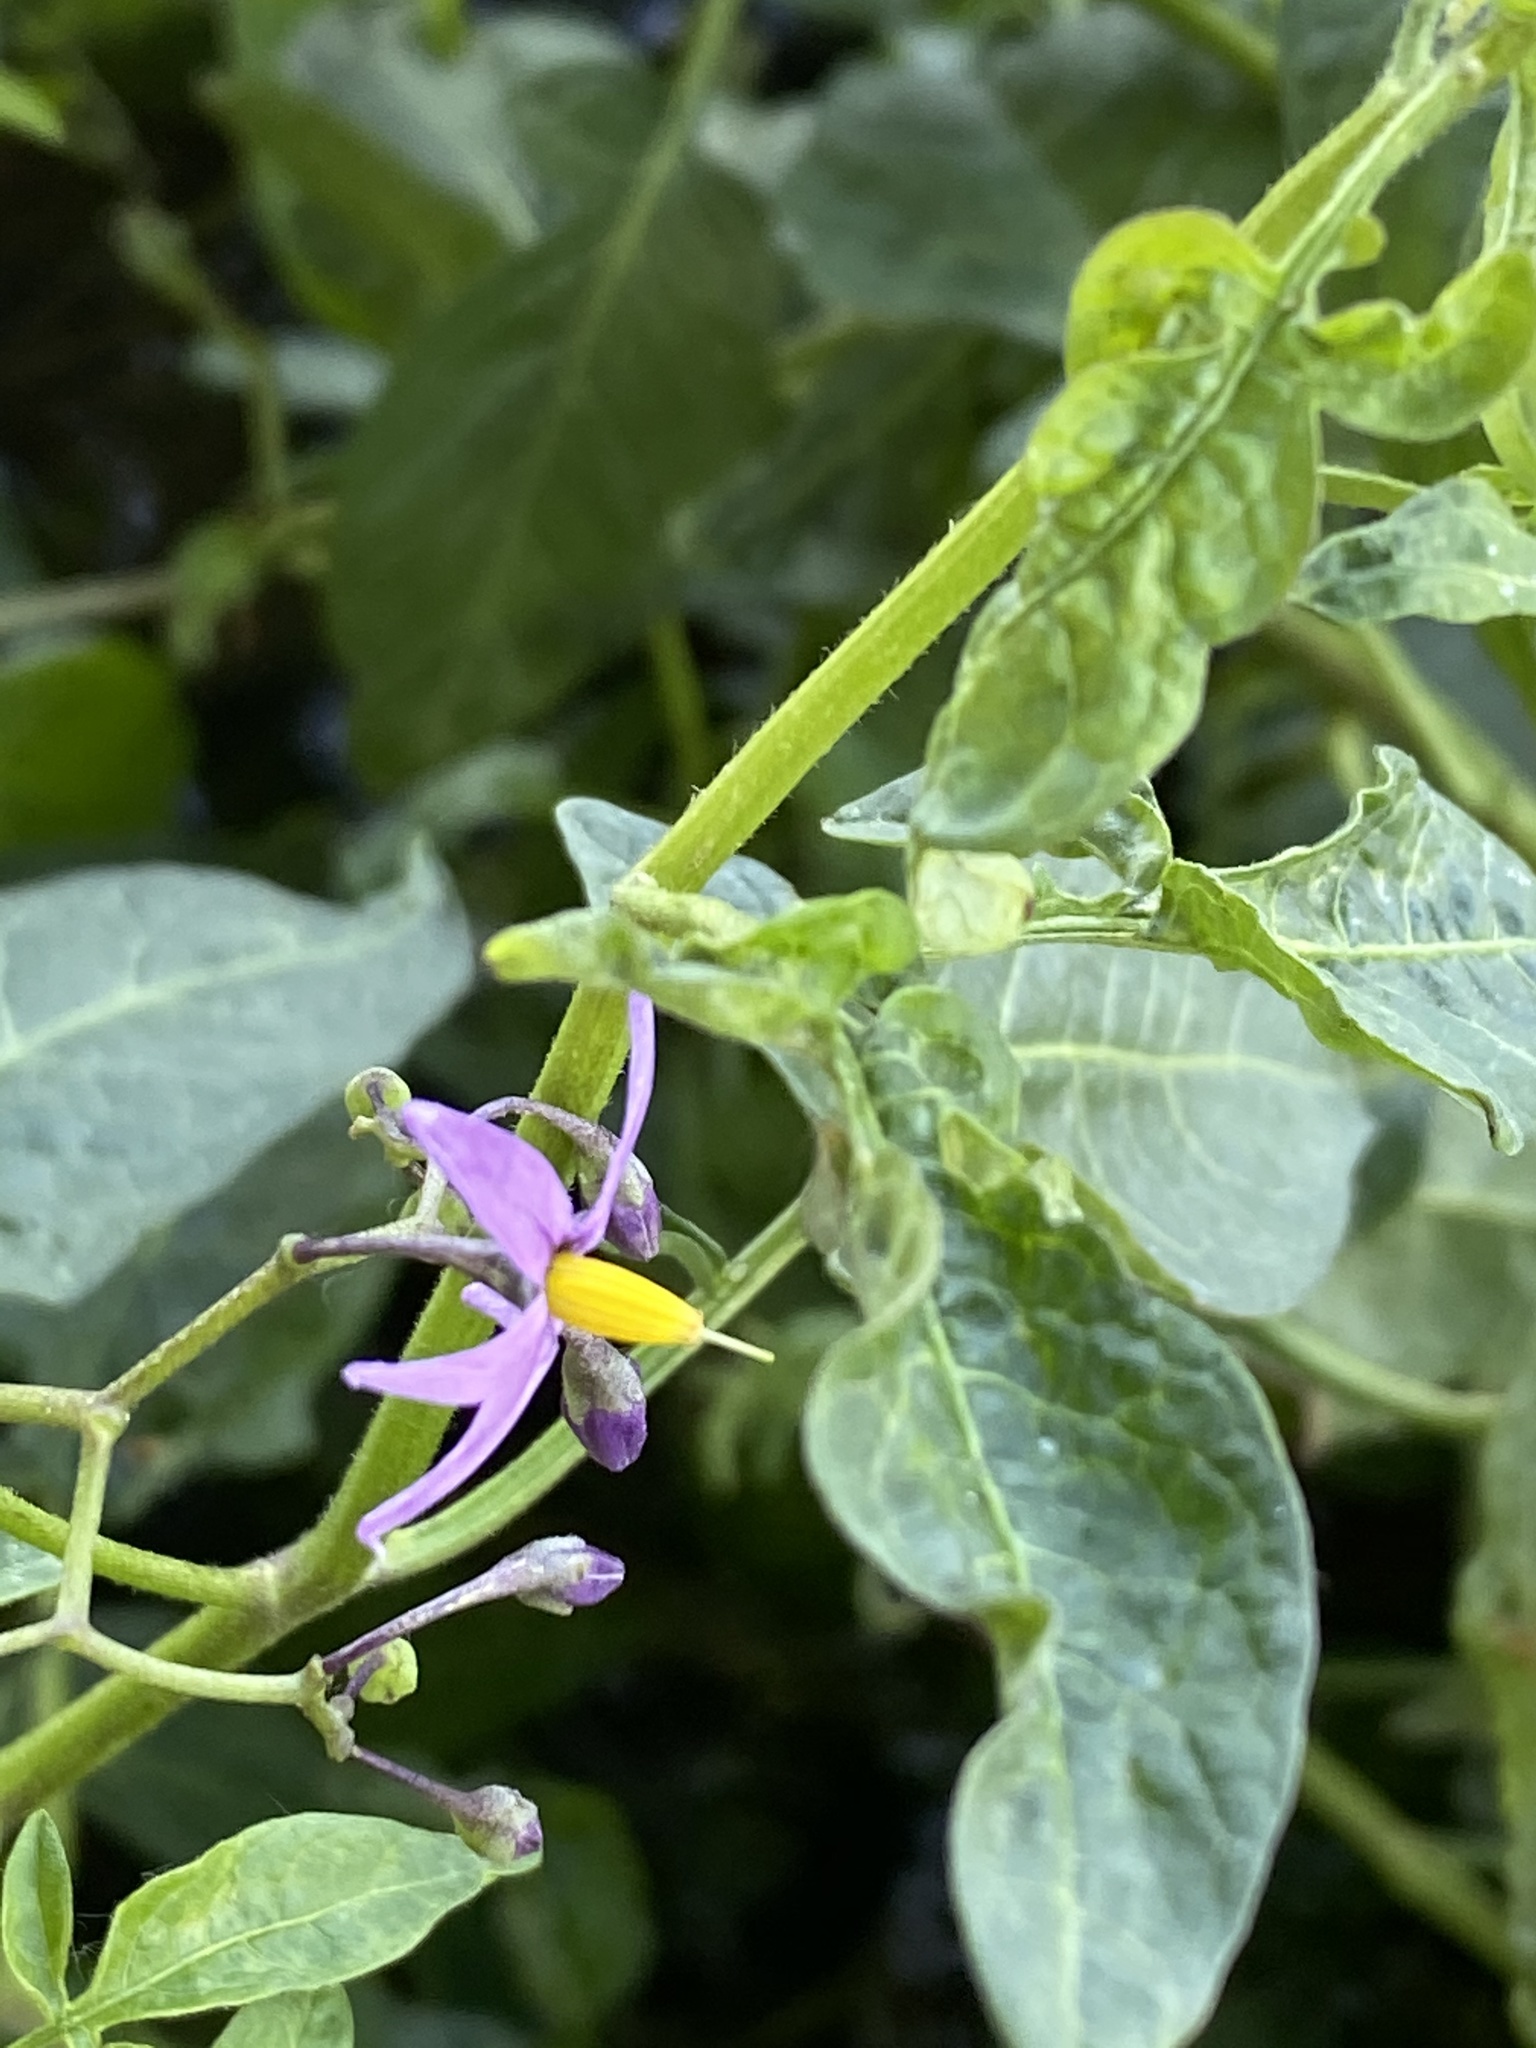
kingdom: Plantae
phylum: Tracheophyta
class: Magnoliopsida
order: Solanales
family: Solanaceae
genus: Solanum
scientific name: Solanum dulcamara
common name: Climbing nightshade
